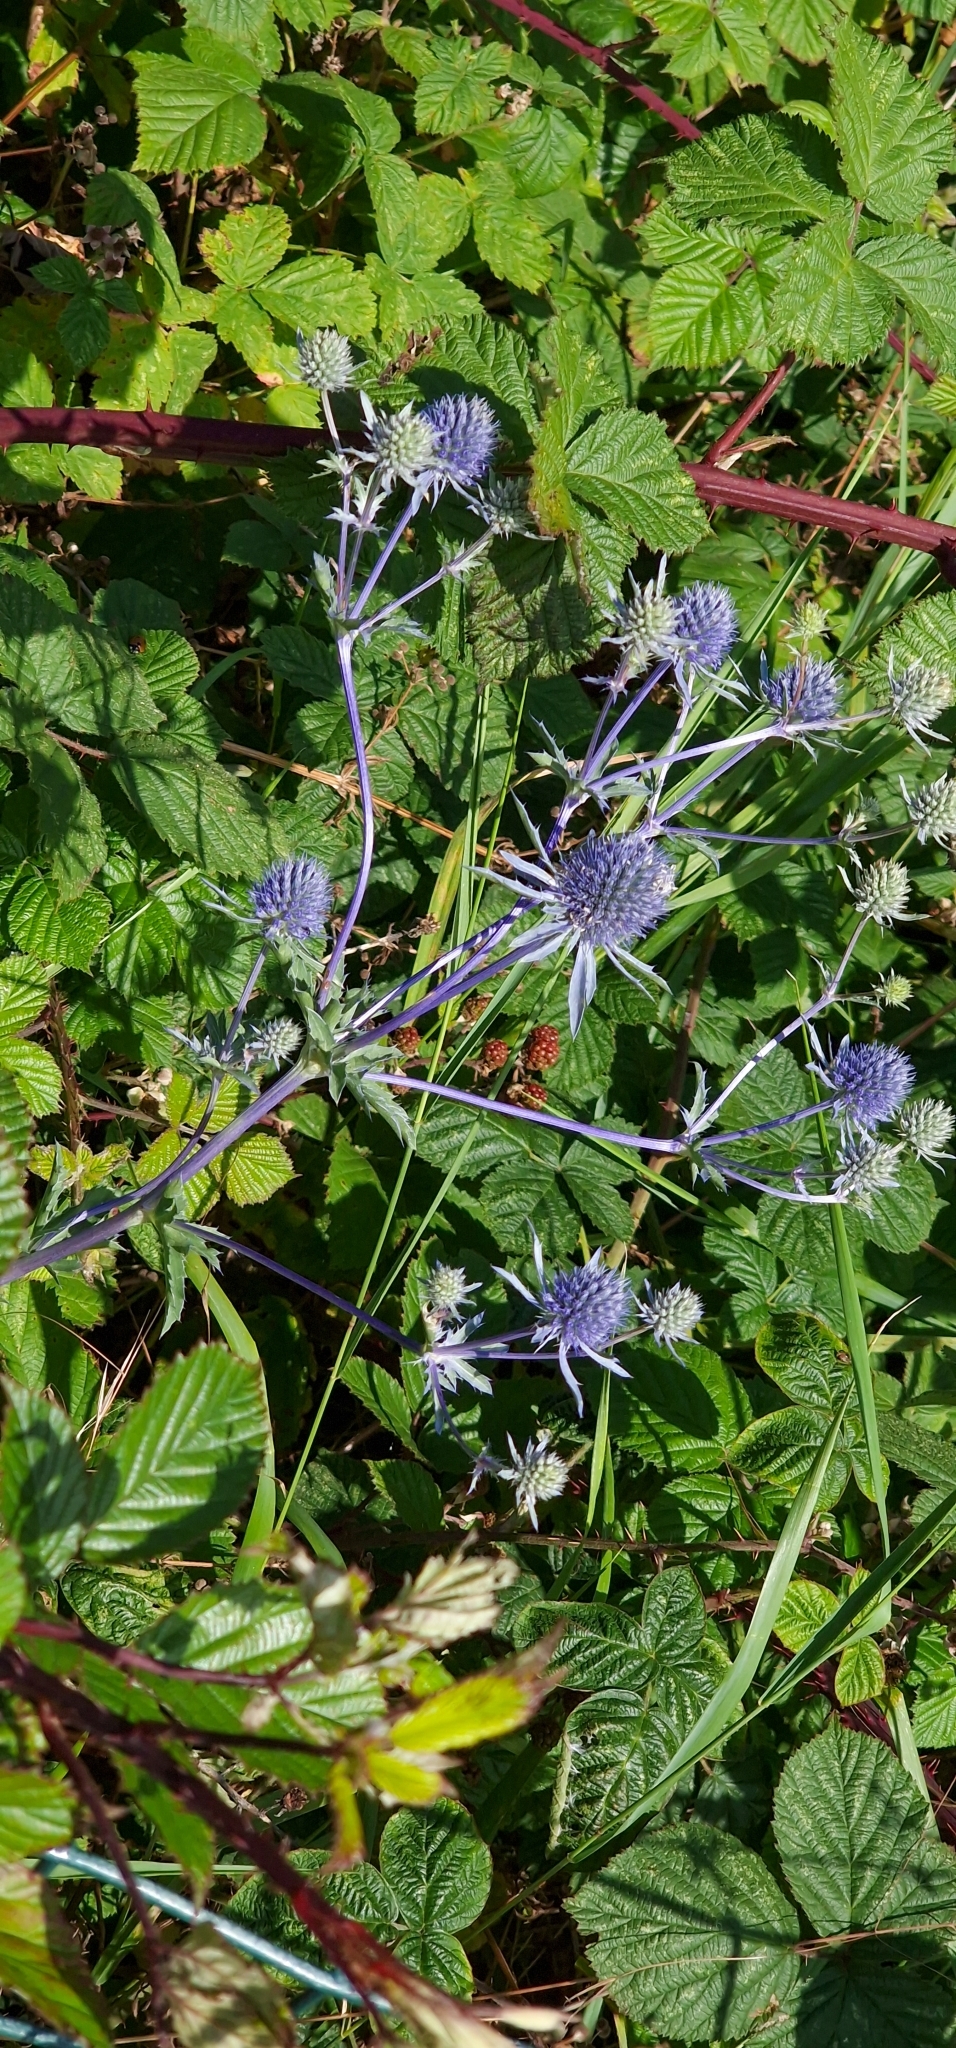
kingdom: Plantae
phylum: Tracheophyta
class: Magnoliopsida
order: Apiales
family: Apiaceae
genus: Eryngium
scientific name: Eryngium planum
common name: Blue eryngo
